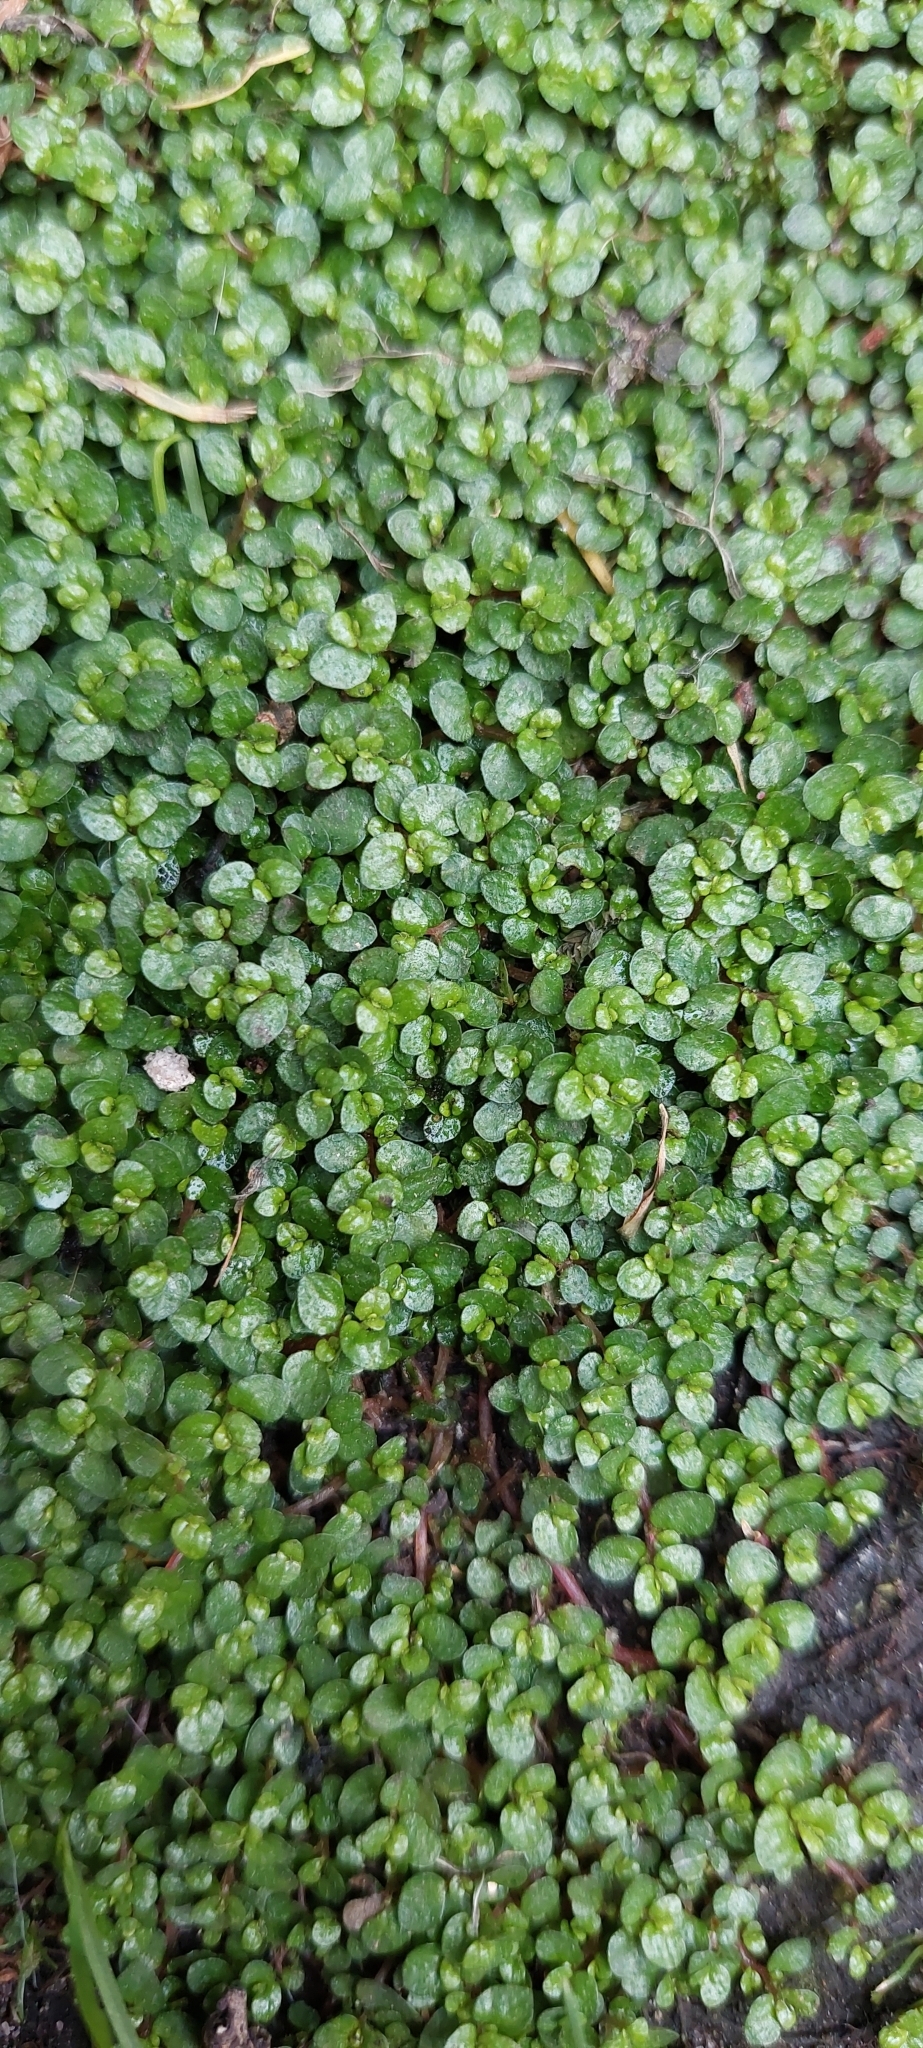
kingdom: Plantae
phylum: Tracheophyta
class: Magnoliopsida
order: Rosales
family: Urticaceae
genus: Soleirolia
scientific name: Soleirolia soleirolii
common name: Mind-your-own-business
